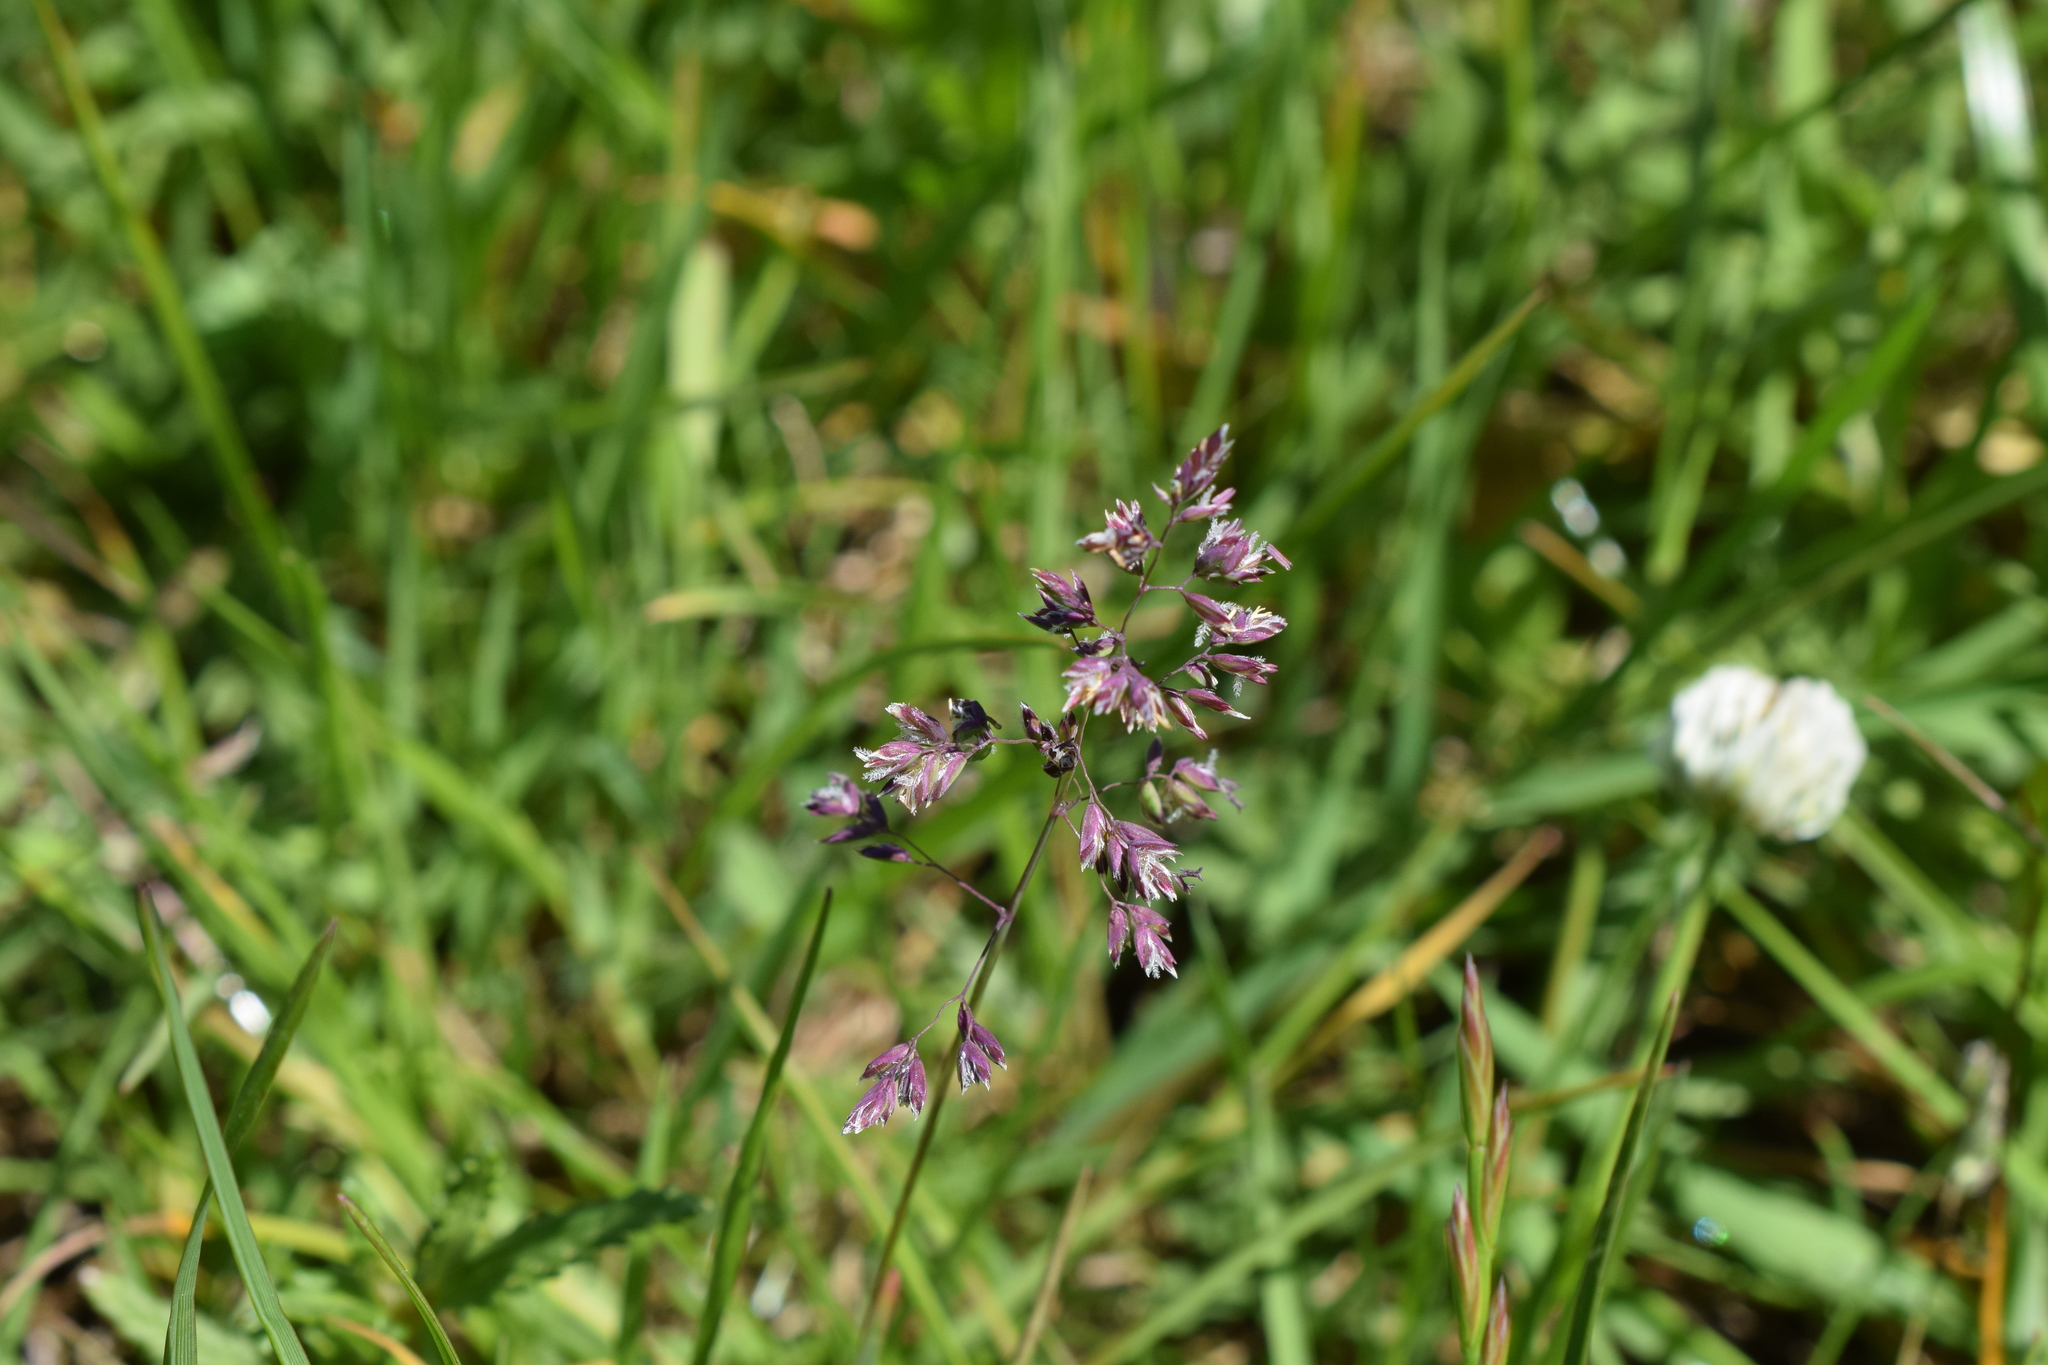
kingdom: Plantae
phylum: Tracheophyta
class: Liliopsida
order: Poales
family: Poaceae
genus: Holcus
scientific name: Holcus lanatus
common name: Yorkshire-fog
